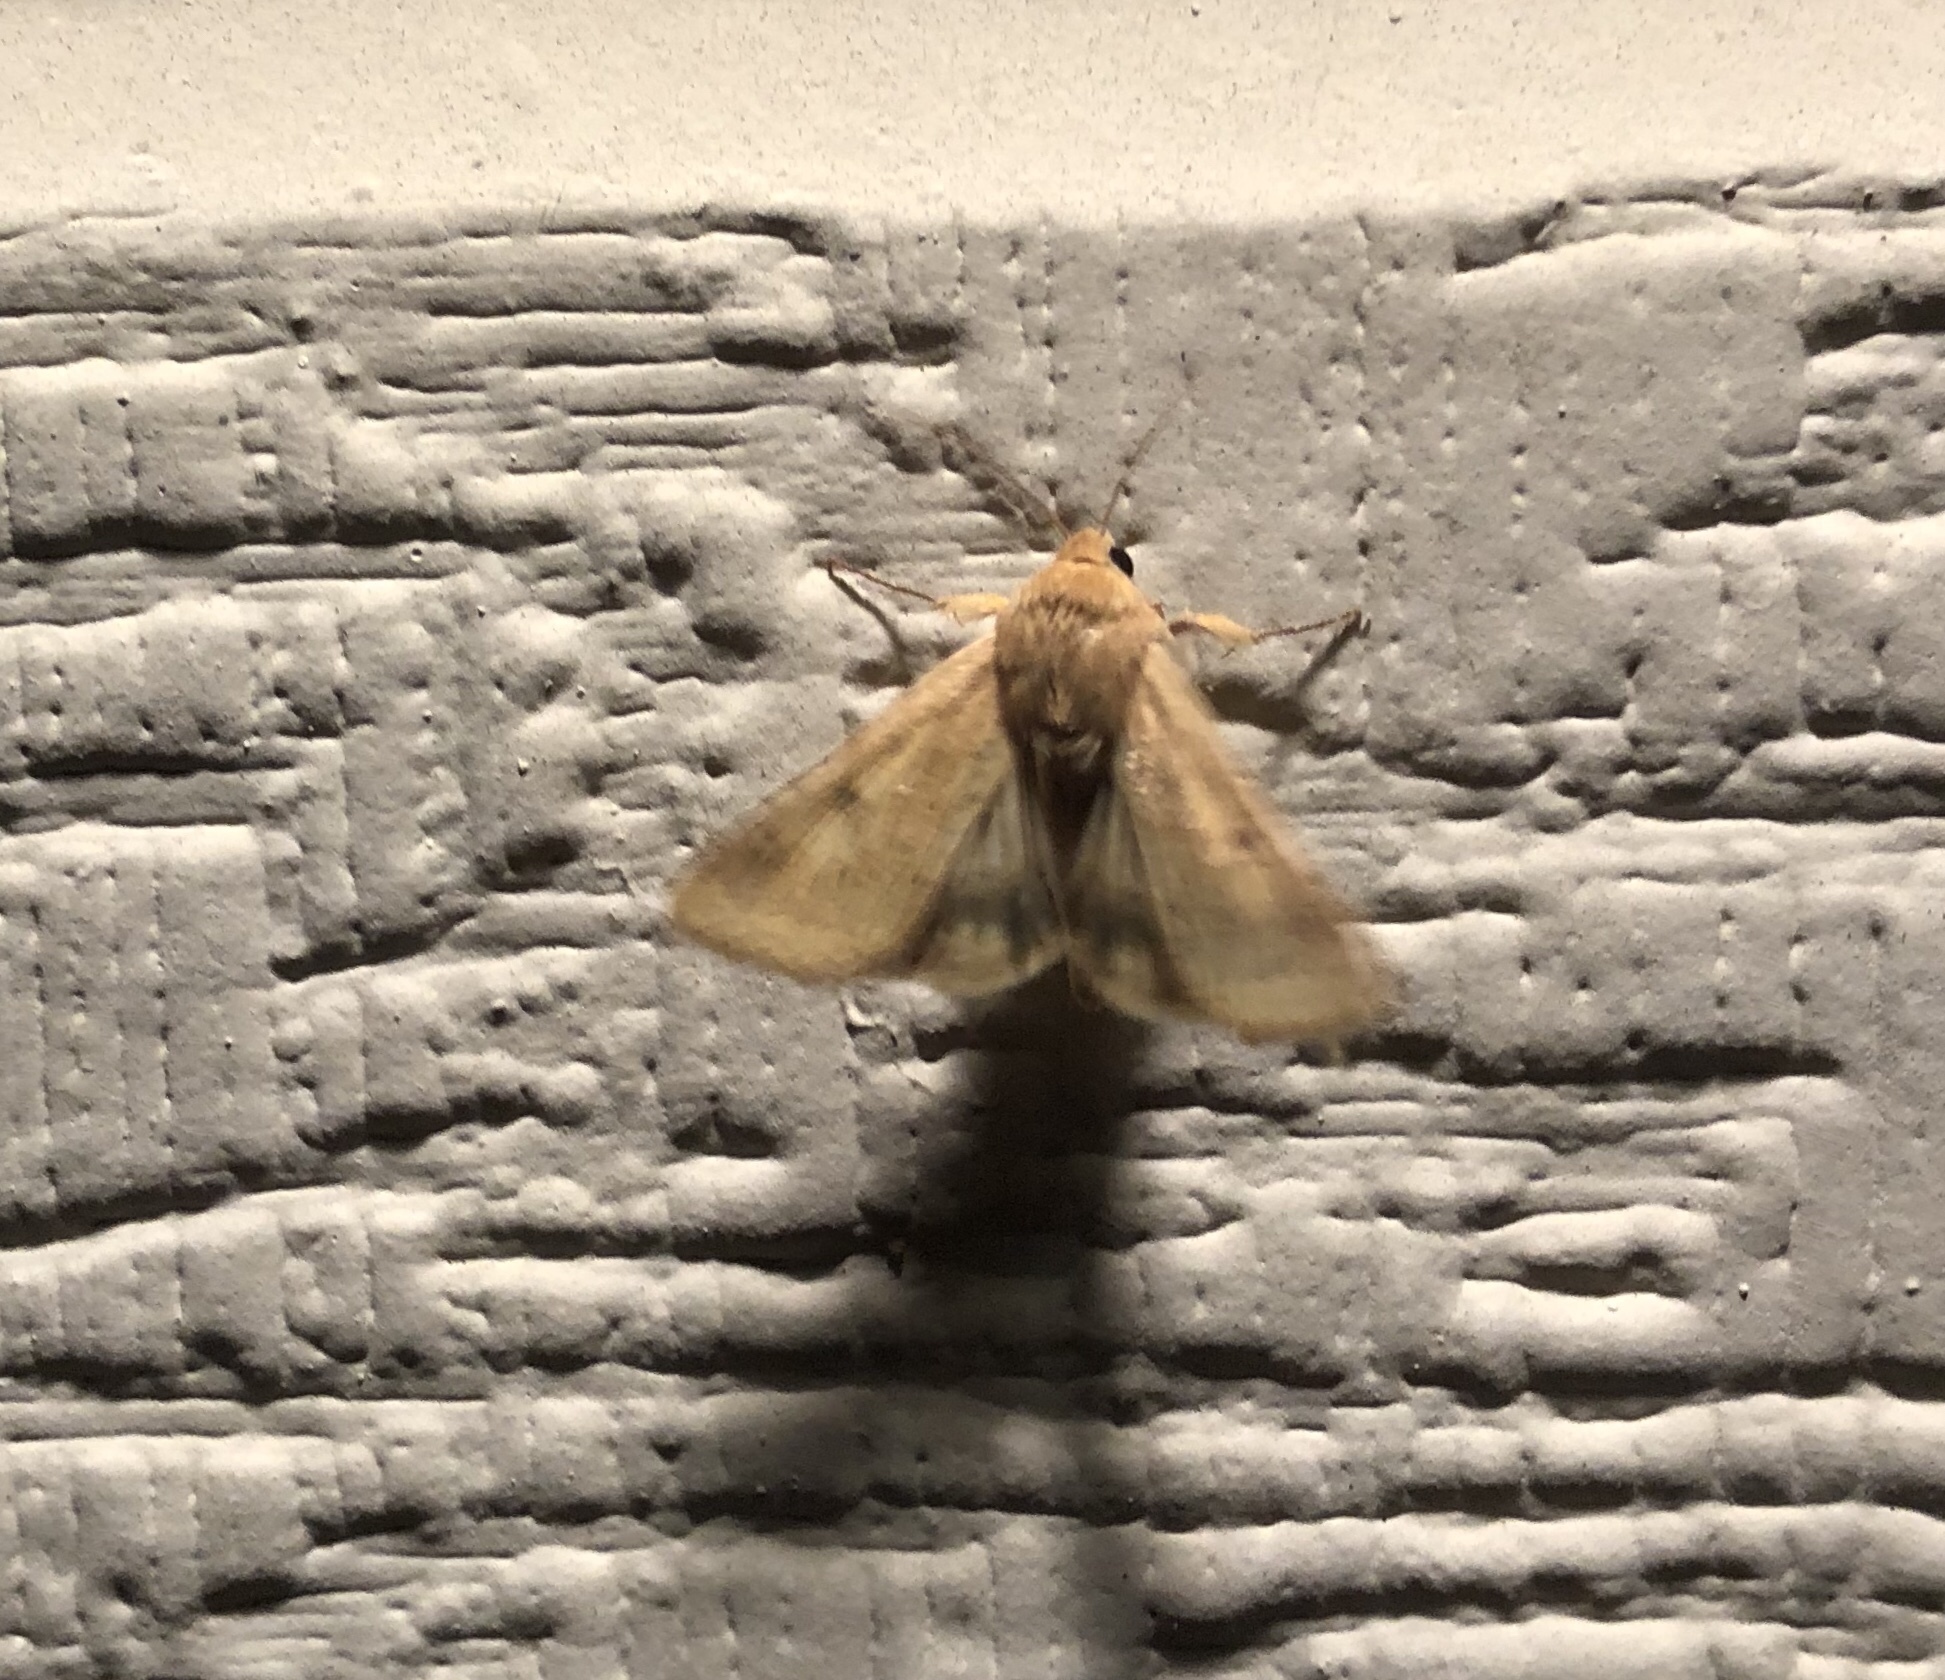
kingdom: Animalia
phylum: Arthropoda
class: Insecta
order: Lepidoptera
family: Noctuidae
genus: Helicoverpa
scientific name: Helicoverpa zea
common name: Bollworm
